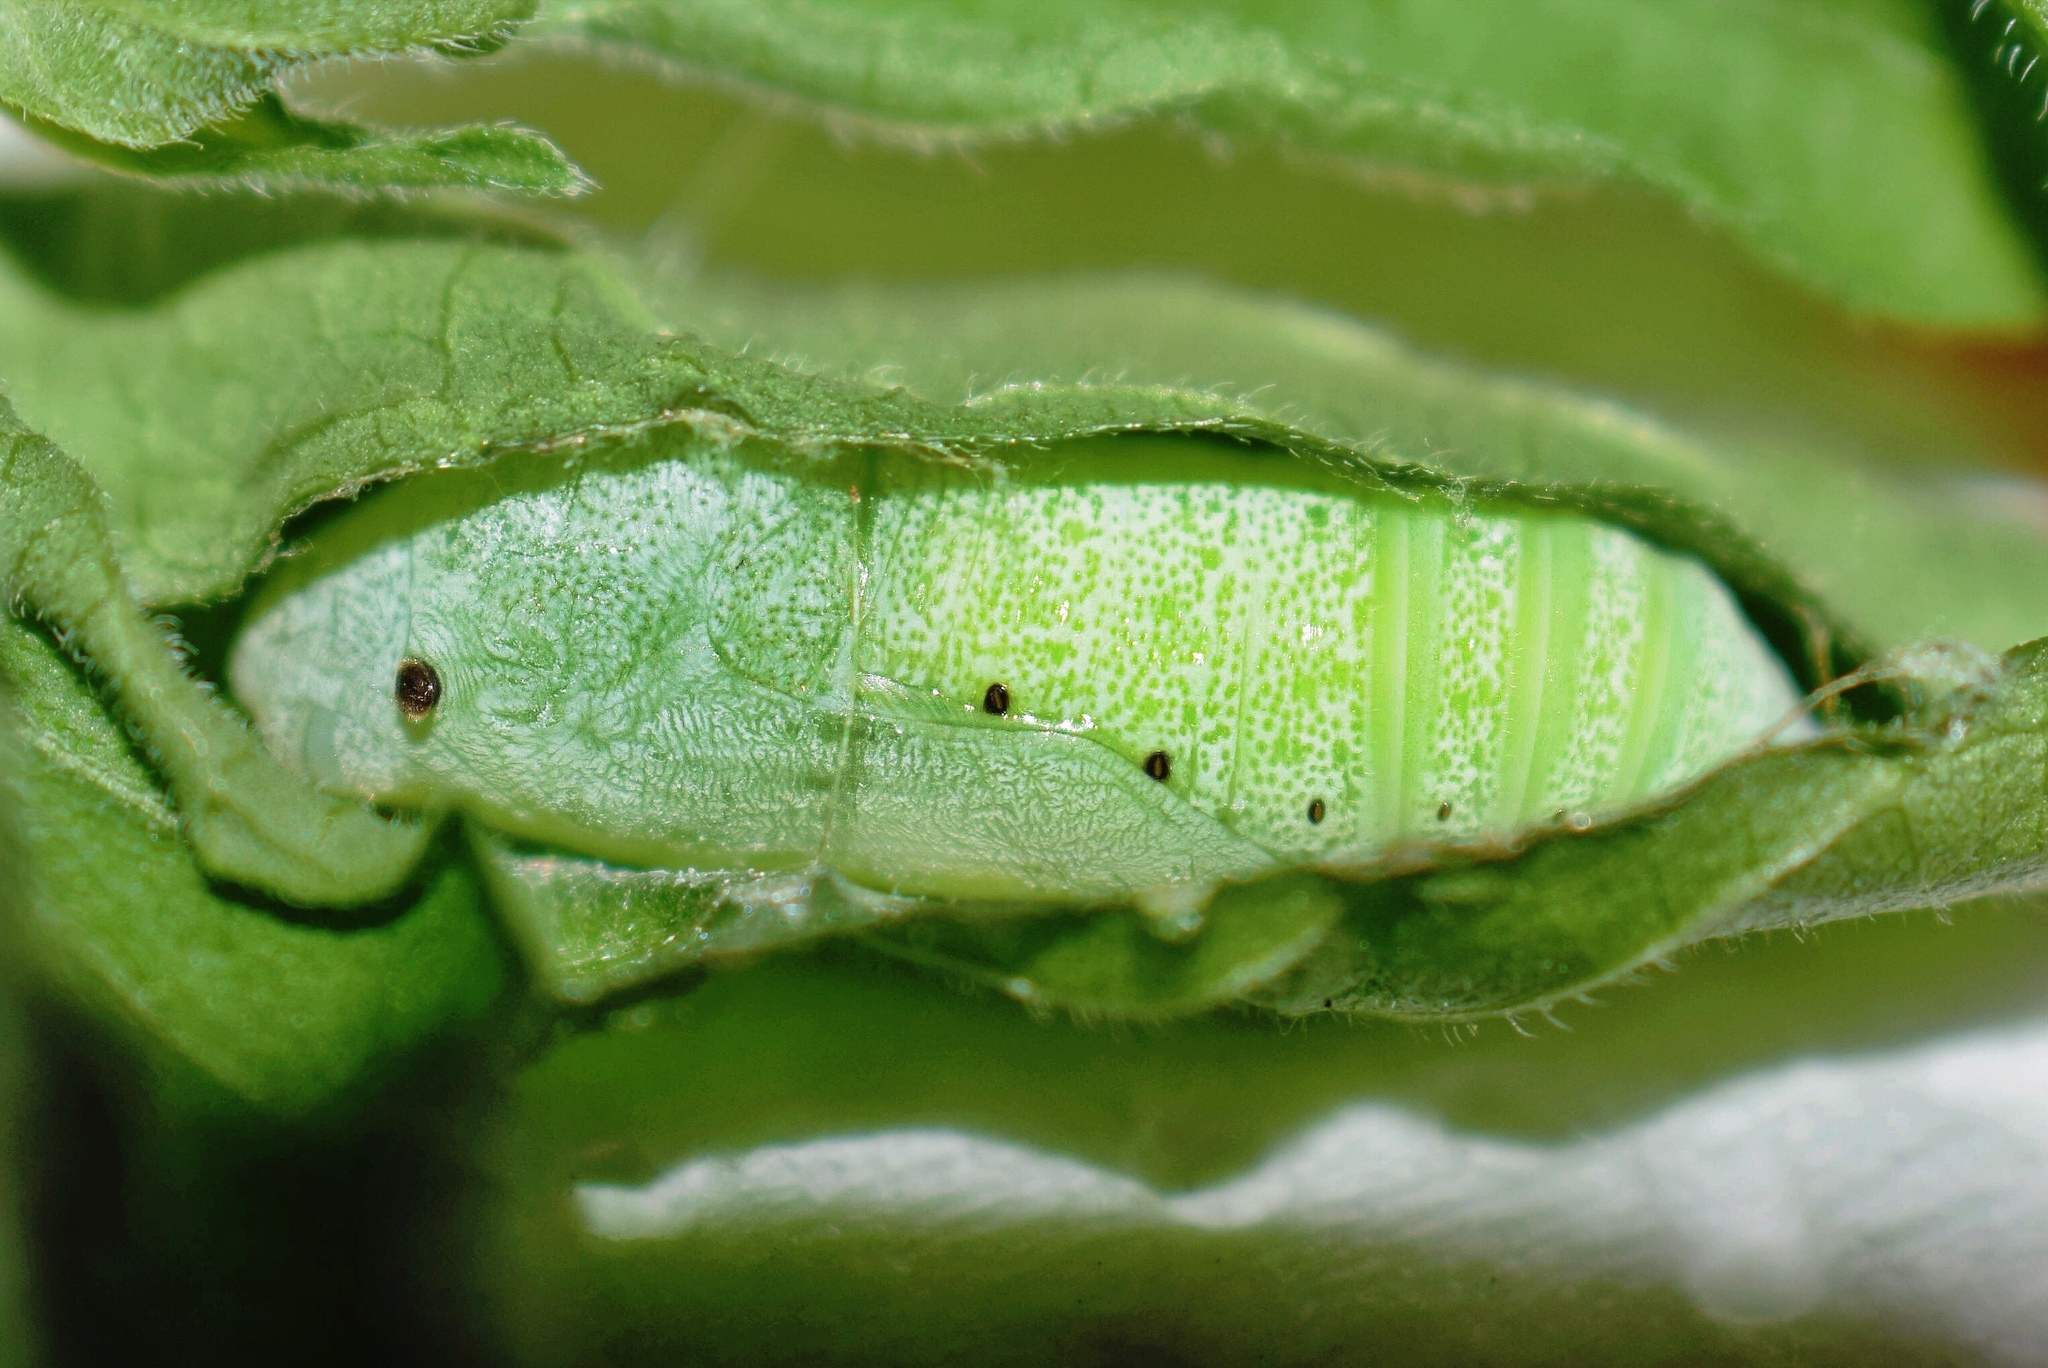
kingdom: Animalia
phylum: Arthropoda
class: Insecta
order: Lepidoptera
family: Hesperiidae
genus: Sarangesa
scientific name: Sarangesa motozi
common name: Forest elfin
